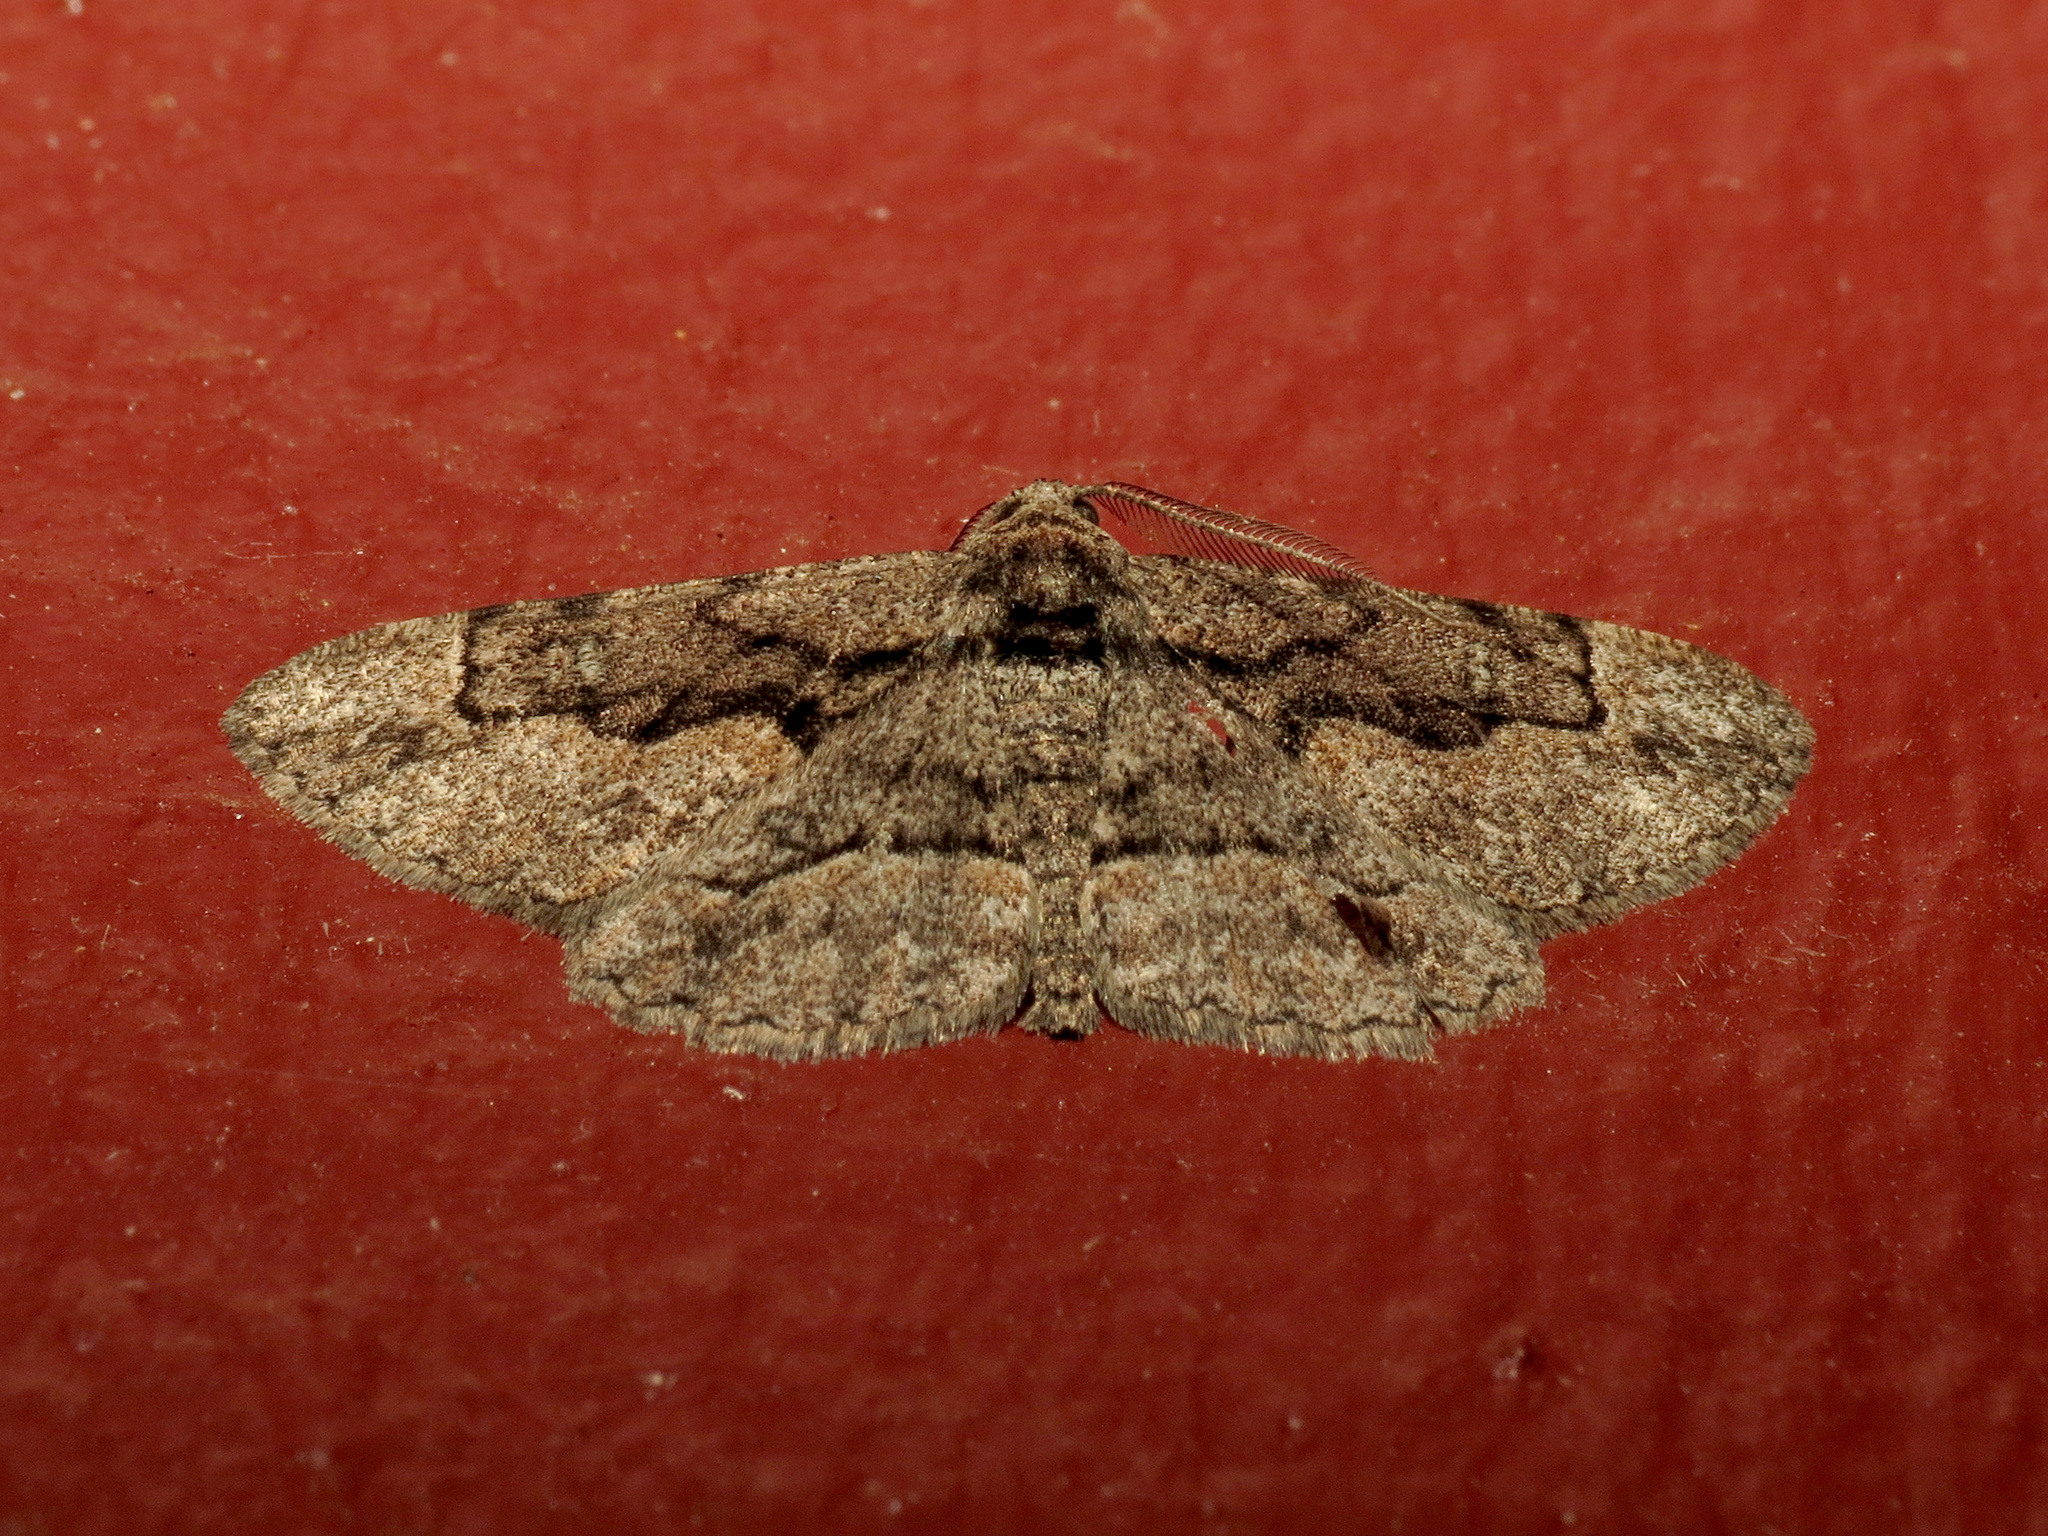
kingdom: Animalia
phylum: Arthropoda
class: Insecta
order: Lepidoptera
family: Geometridae
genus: Iridopsis
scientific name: Iridopsis dataria
